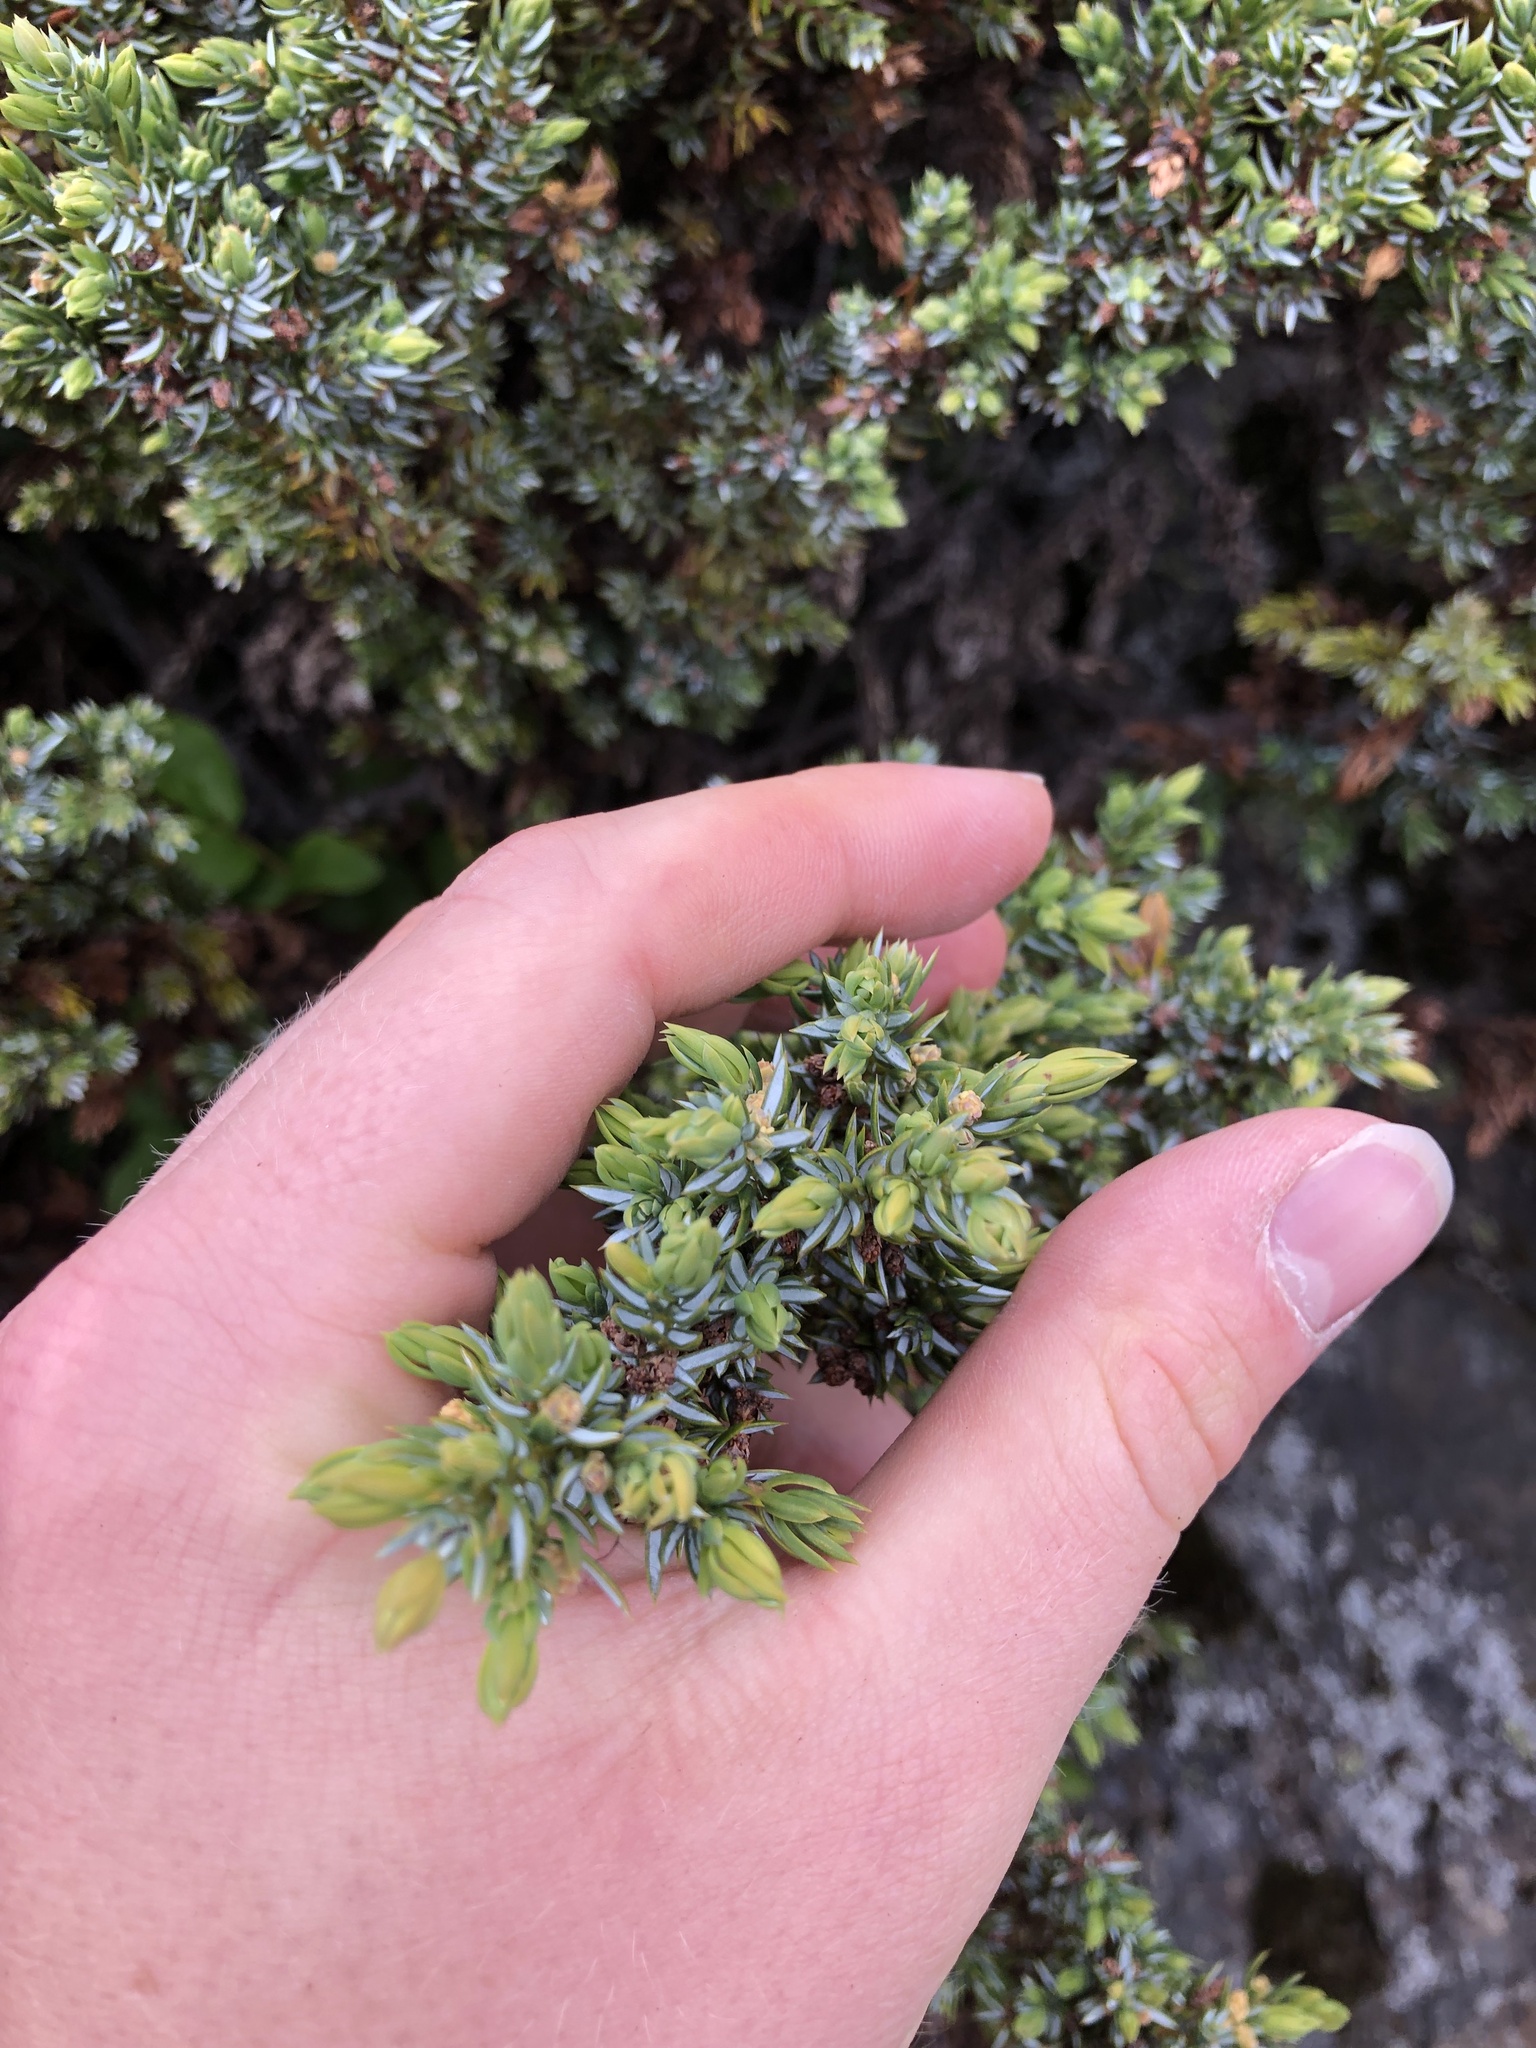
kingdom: Plantae
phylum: Tracheophyta
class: Pinopsida
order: Pinales
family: Cupressaceae
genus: Juniperus
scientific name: Juniperus communis
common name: Common juniper
